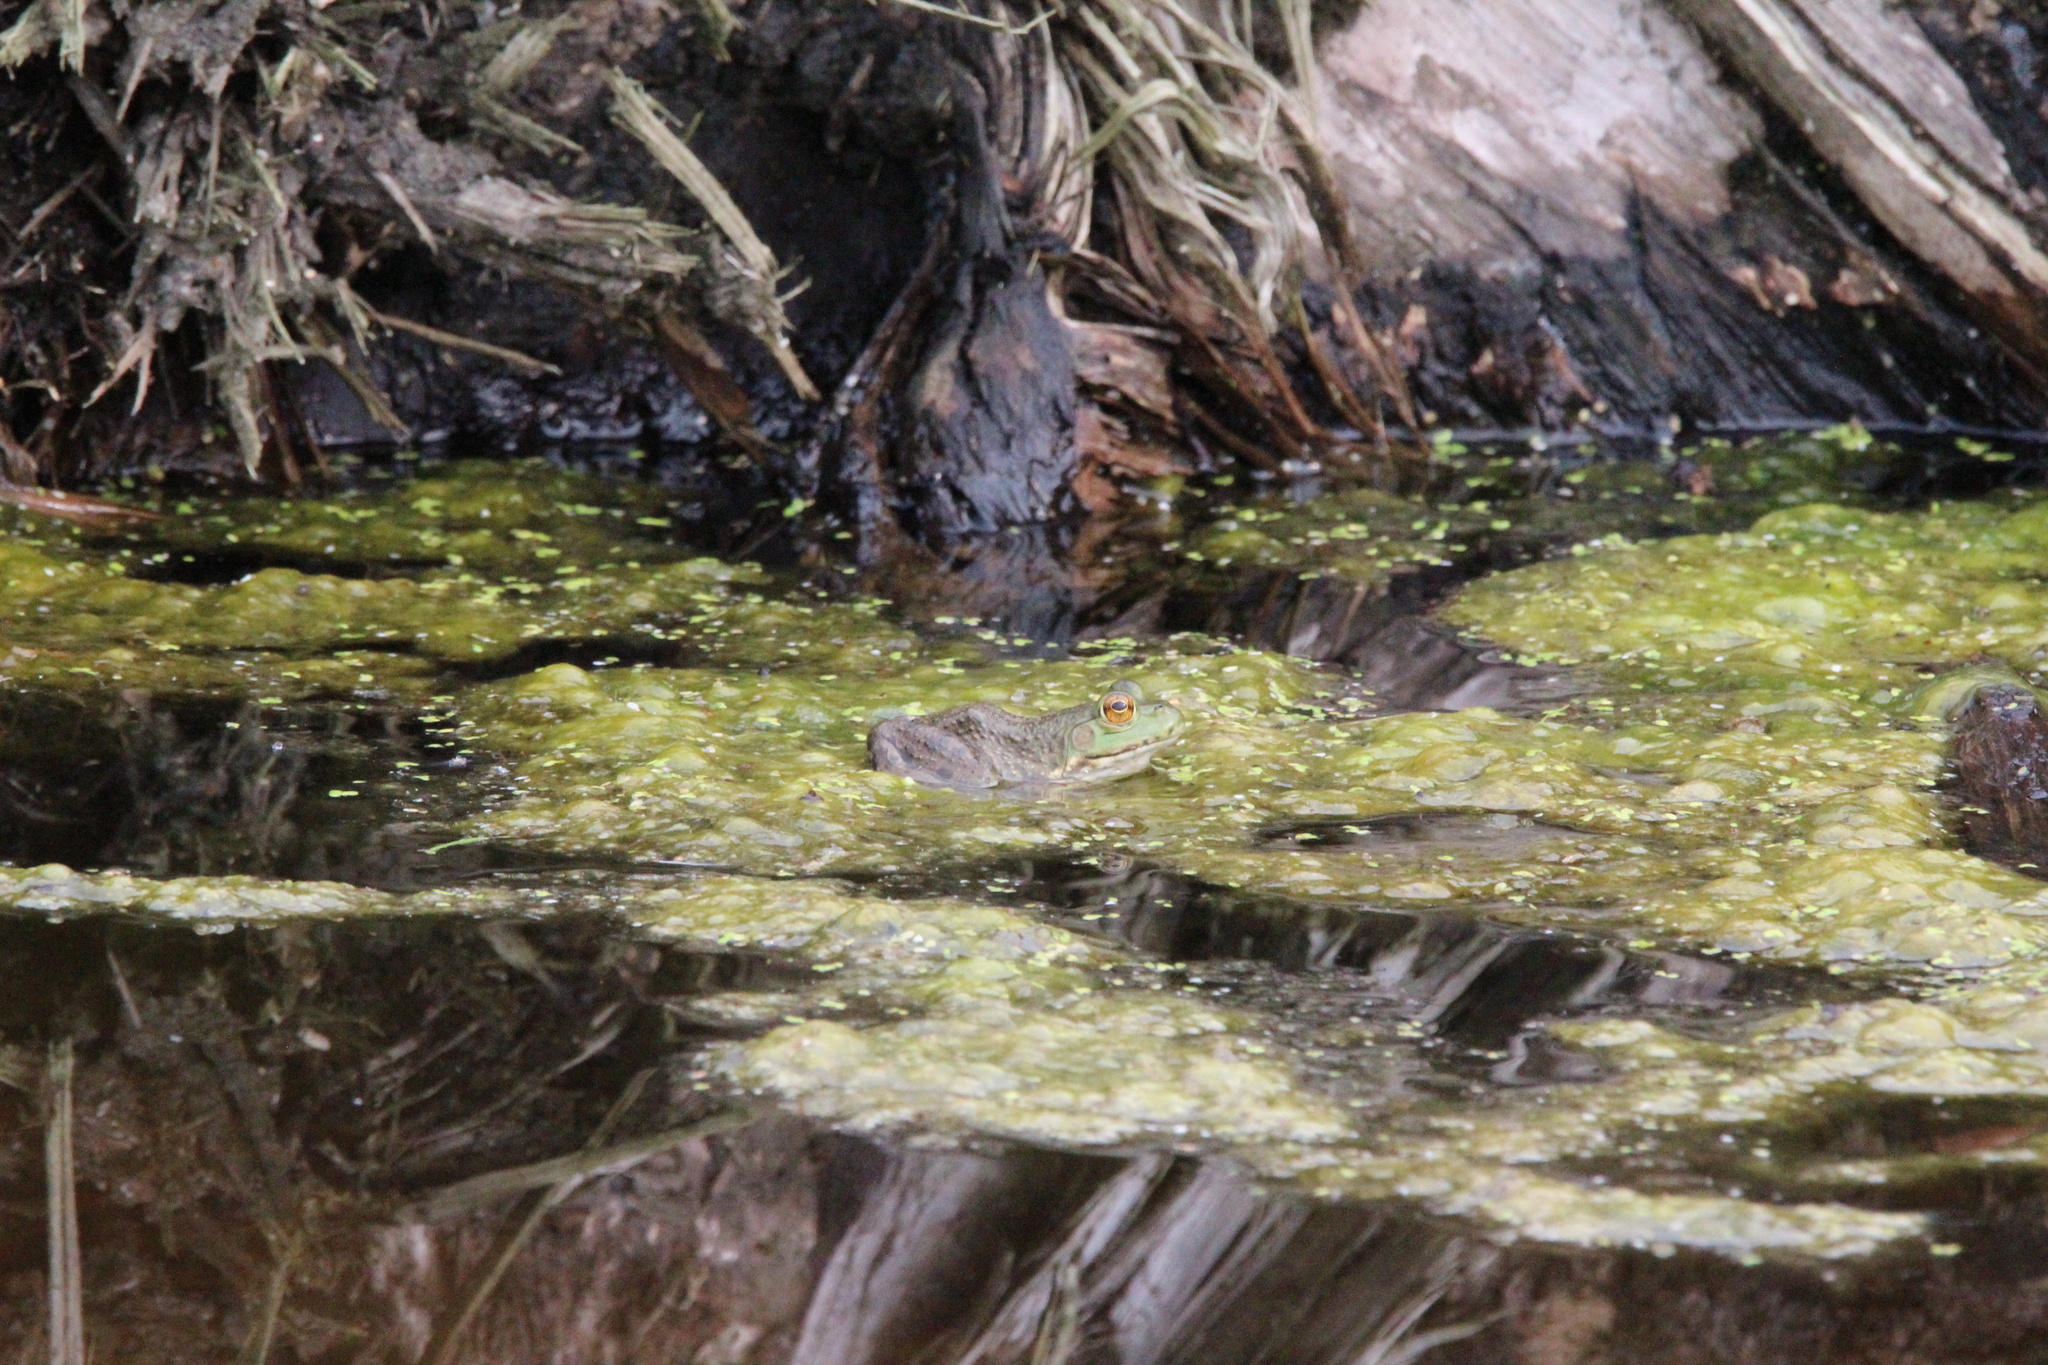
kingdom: Animalia
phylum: Chordata
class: Amphibia
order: Anura
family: Ranidae
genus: Lithobates
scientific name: Lithobates catesbeianus
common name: American bullfrog
